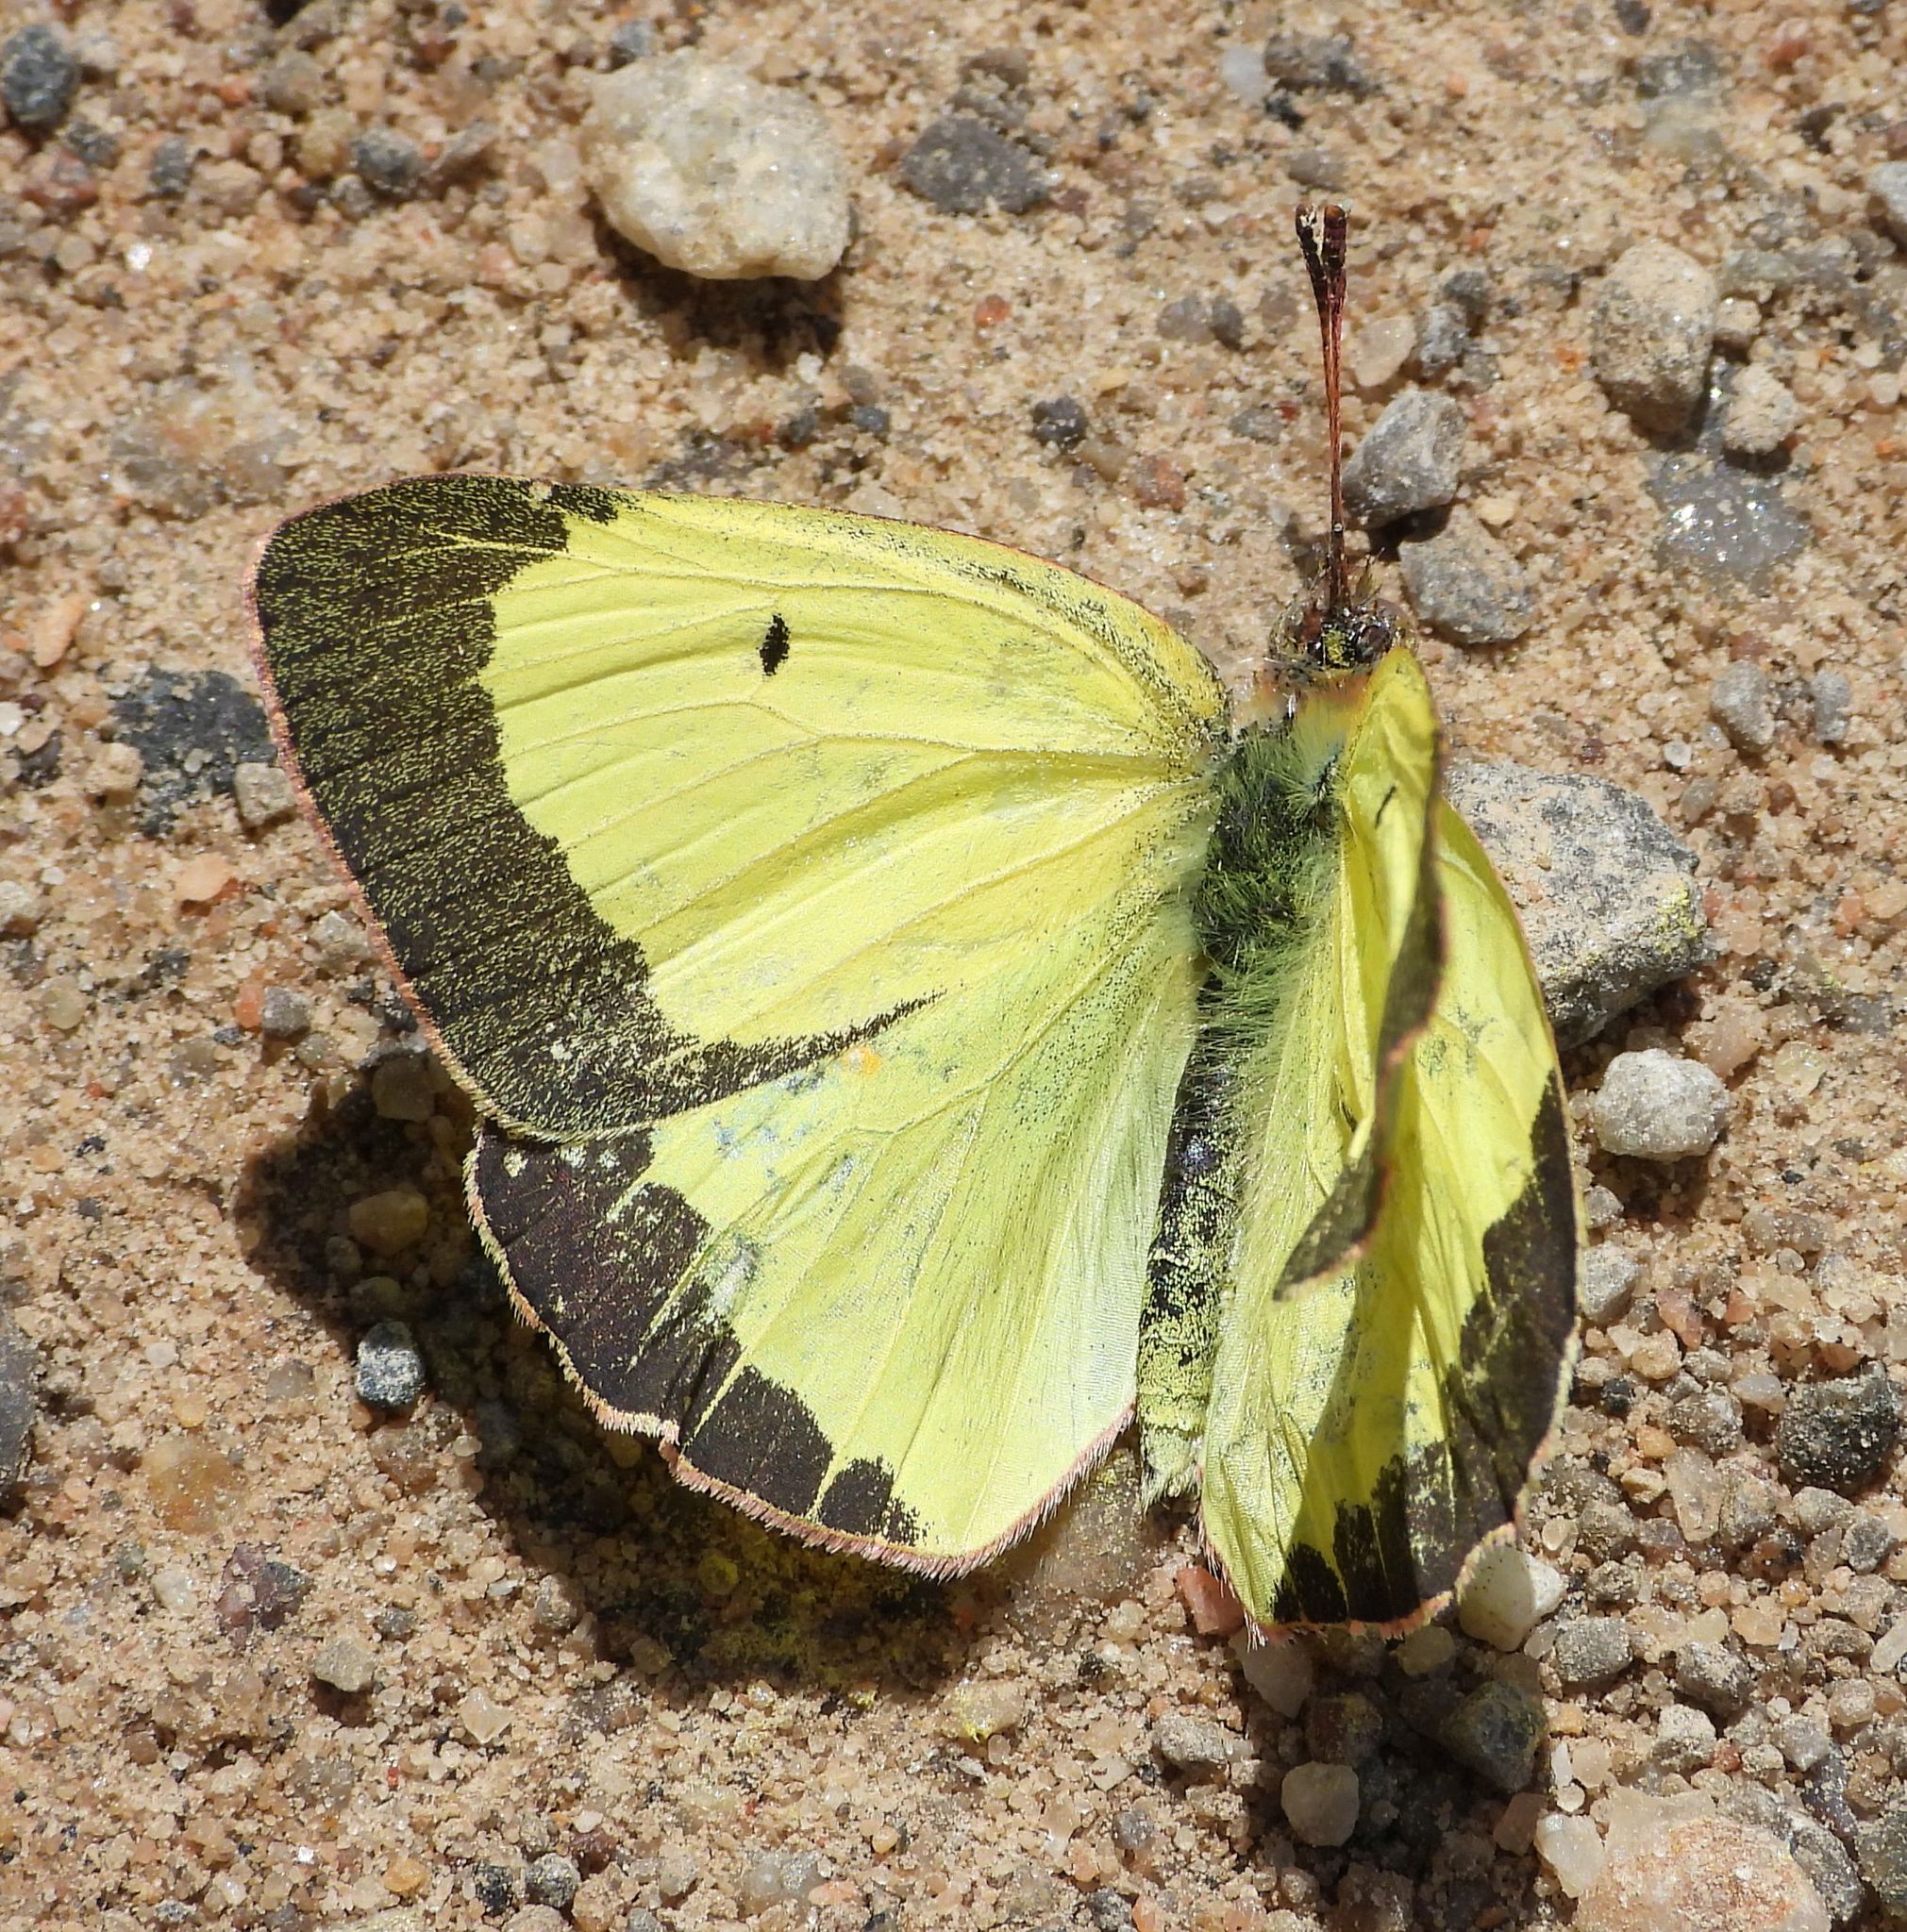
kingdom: Animalia
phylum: Arthropoda
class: Insecta
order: Lepidoptera
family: Pieridae
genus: Colias
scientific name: Colias philodice
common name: Clouded sulphur
